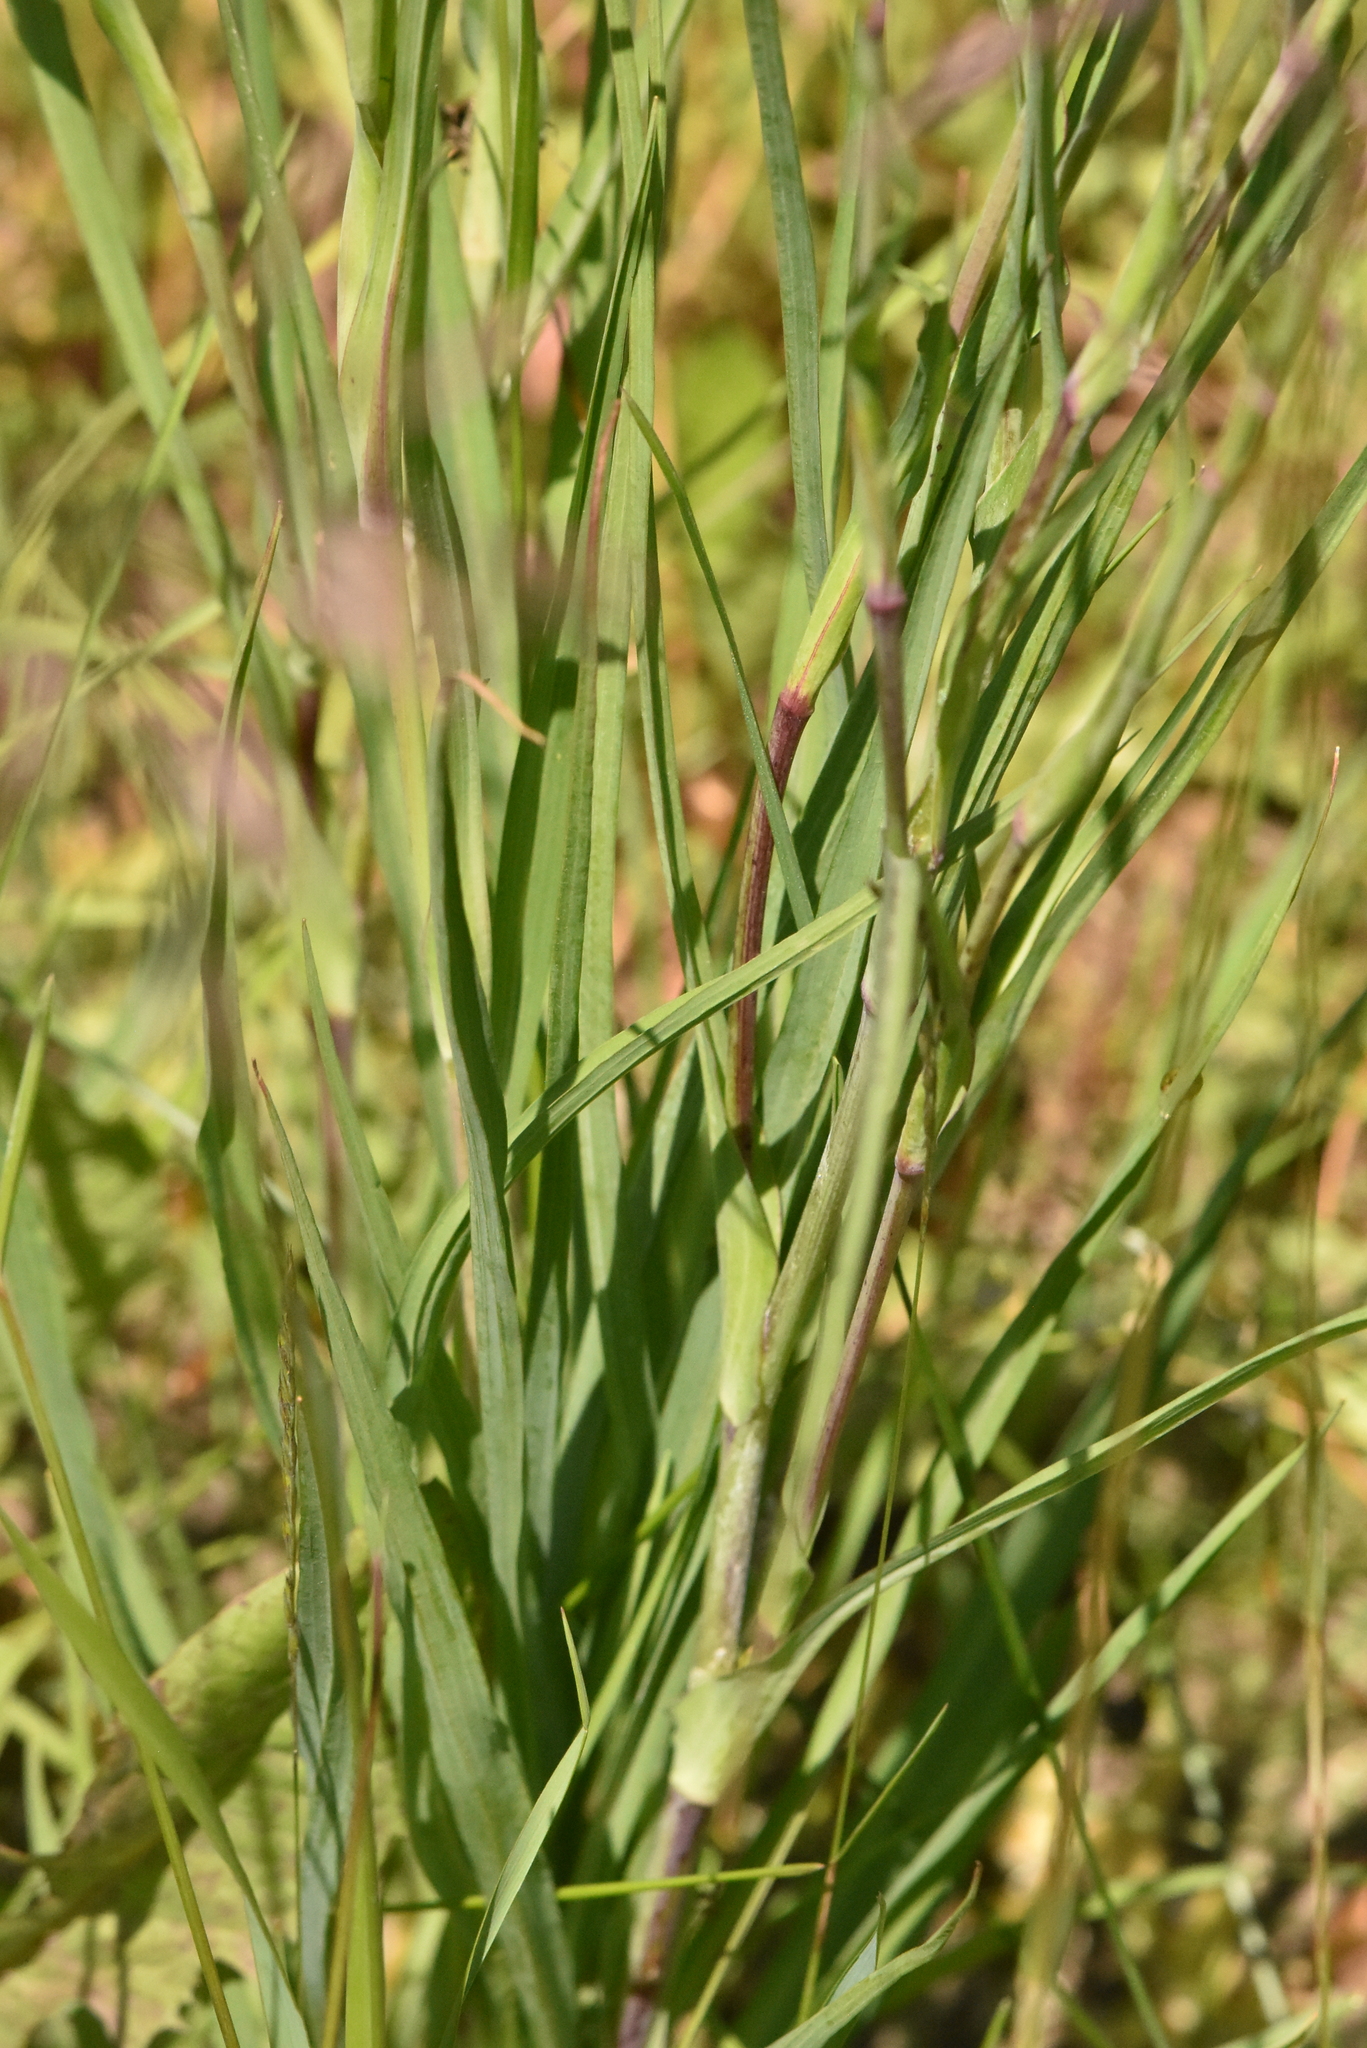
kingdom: Plantae
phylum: Tracheophyta
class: Magnoliopsida
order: Asterales
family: Asteraceae
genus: Tragopogon
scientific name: Tragopogon pratensis
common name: Goat's-beard
